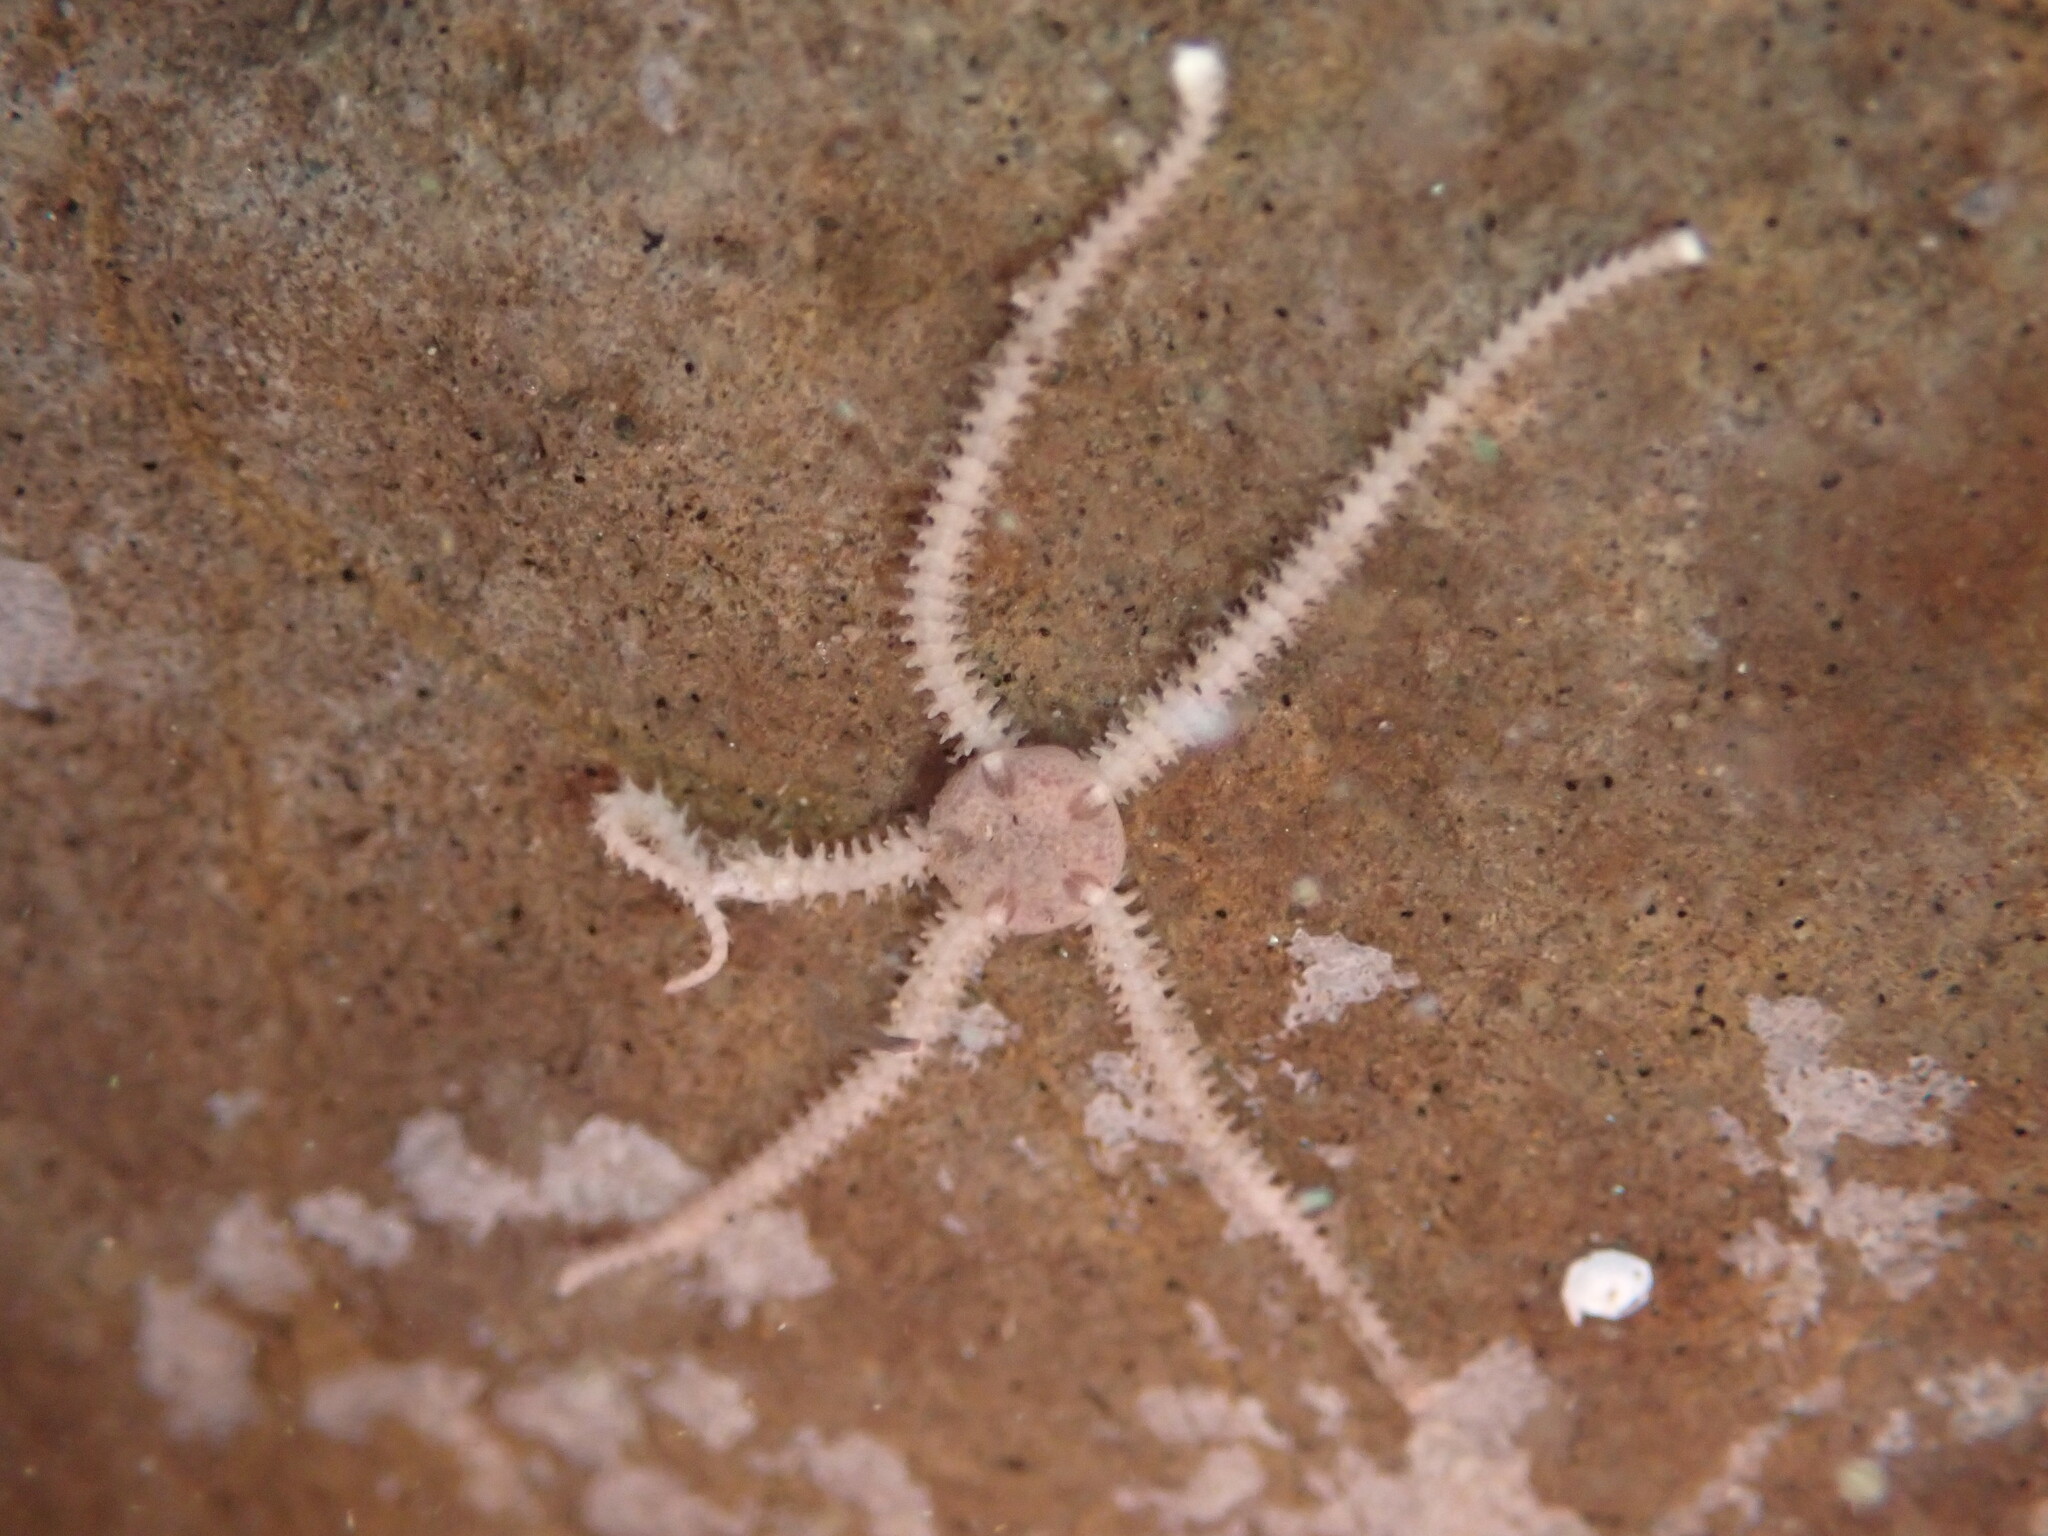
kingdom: Animalia
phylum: Echinodermata
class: Ophiuroidea
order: Amphilepidida
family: Amphiuridae
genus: Amphipholis
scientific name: Amphipholis squamata
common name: Brooding snake star
